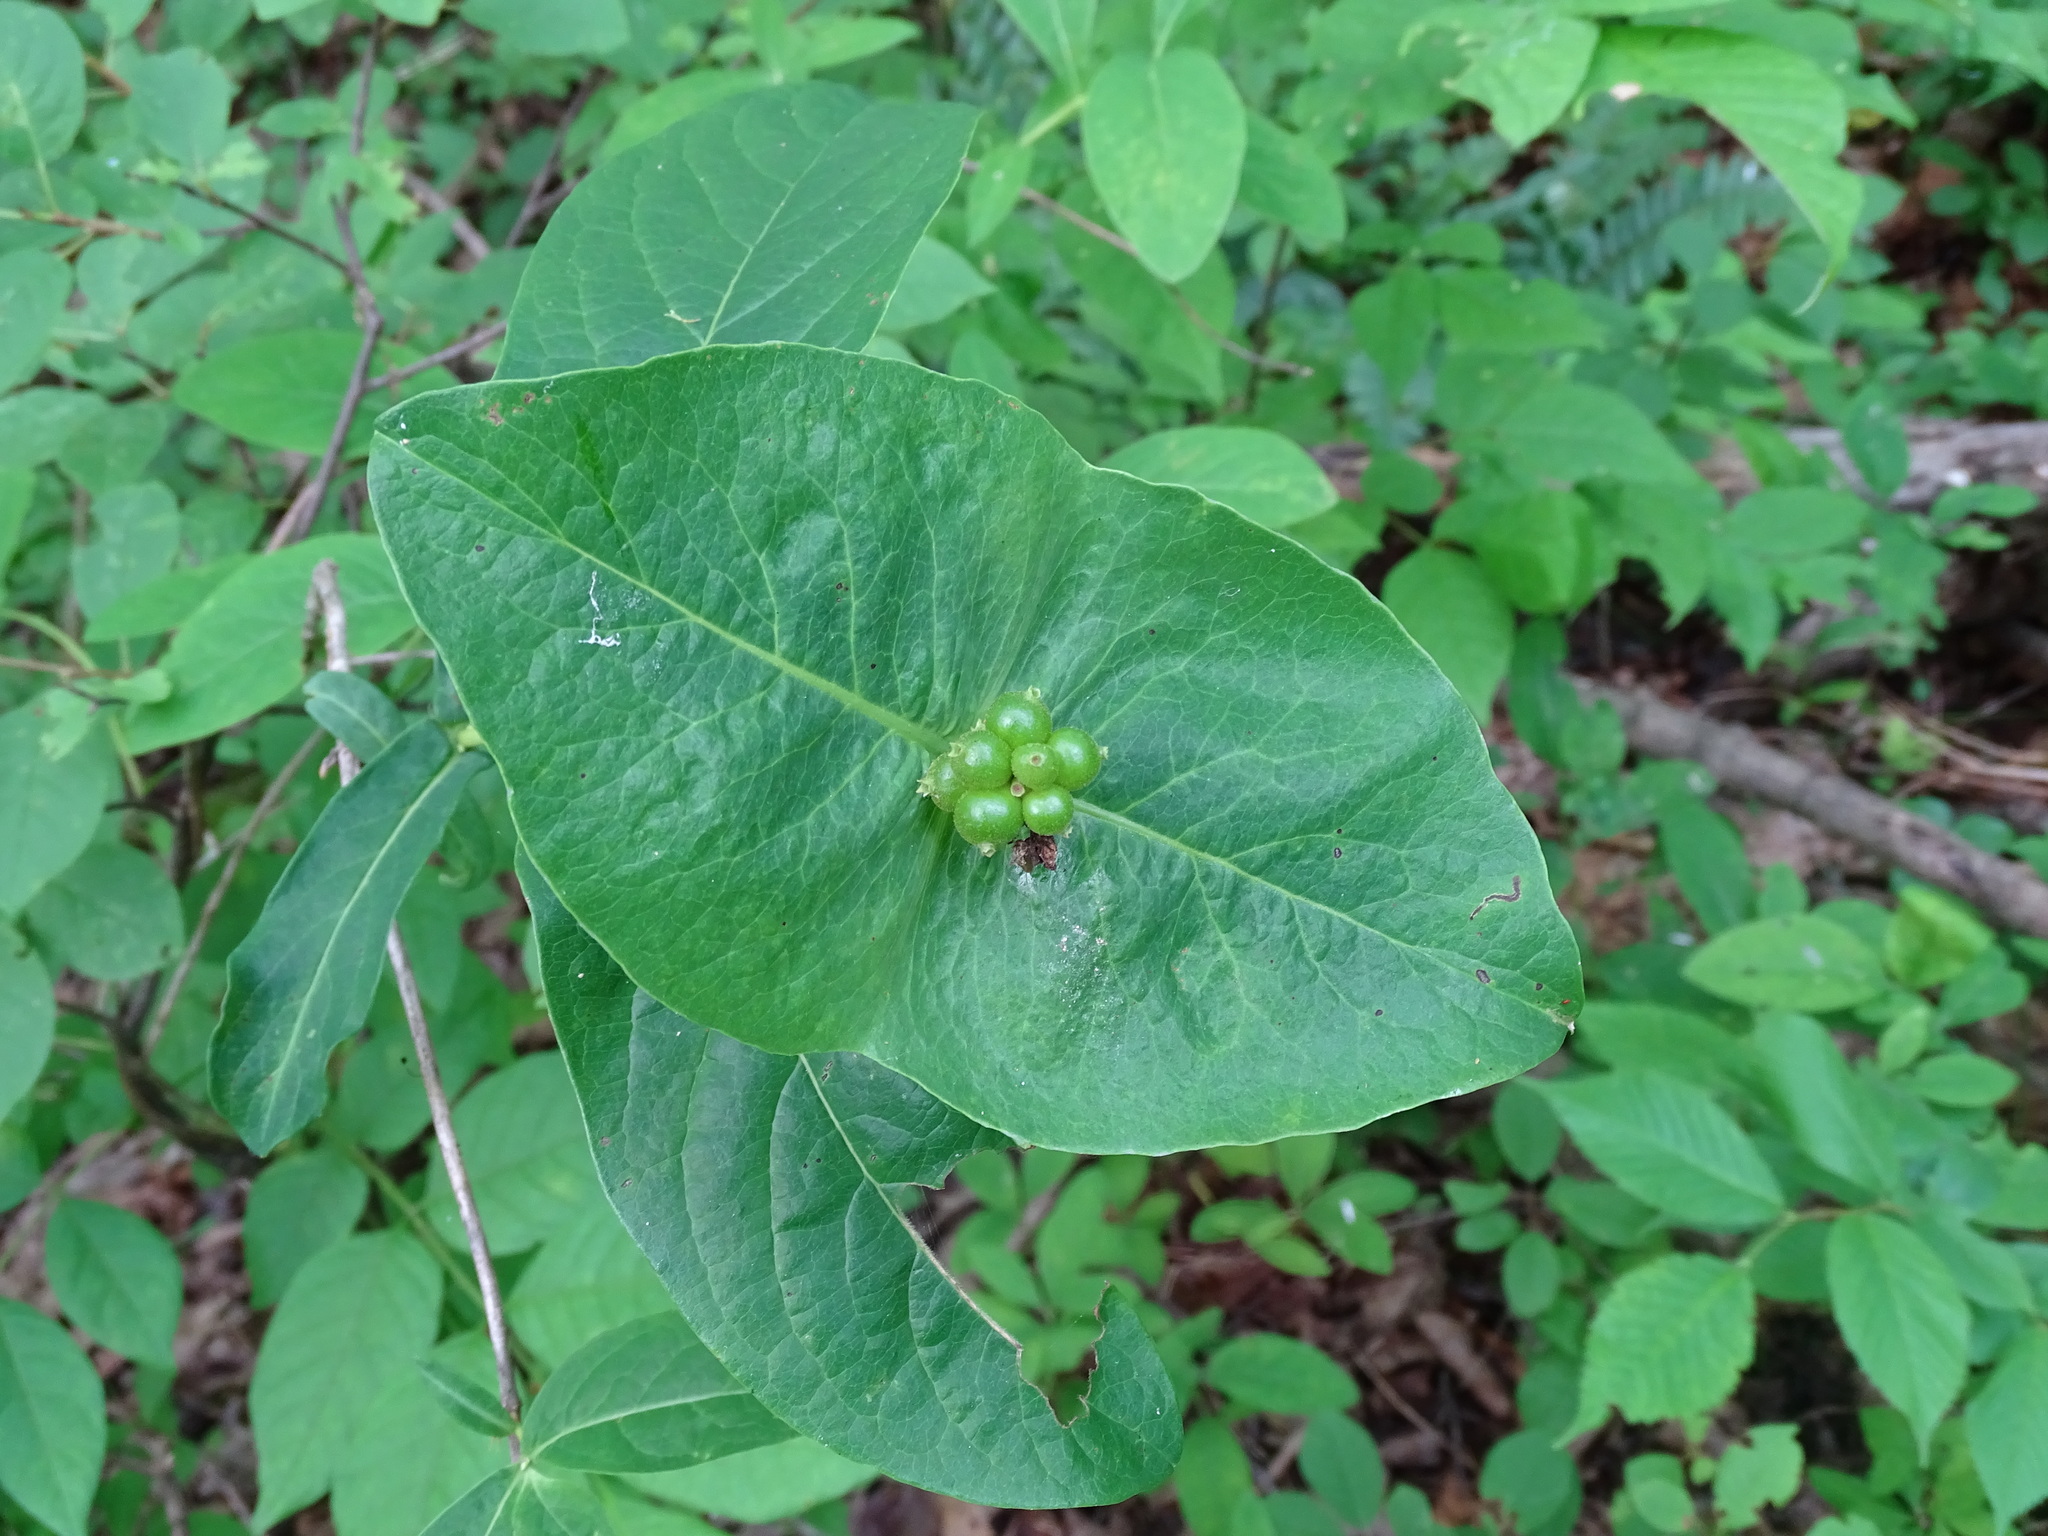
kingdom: Plantae
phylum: Tracheophyta
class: Magnoliopsida
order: Dipsacales
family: Caprifoliaceae
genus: Lonicera
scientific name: Lonicera dioica
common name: Limber honeysuckle
